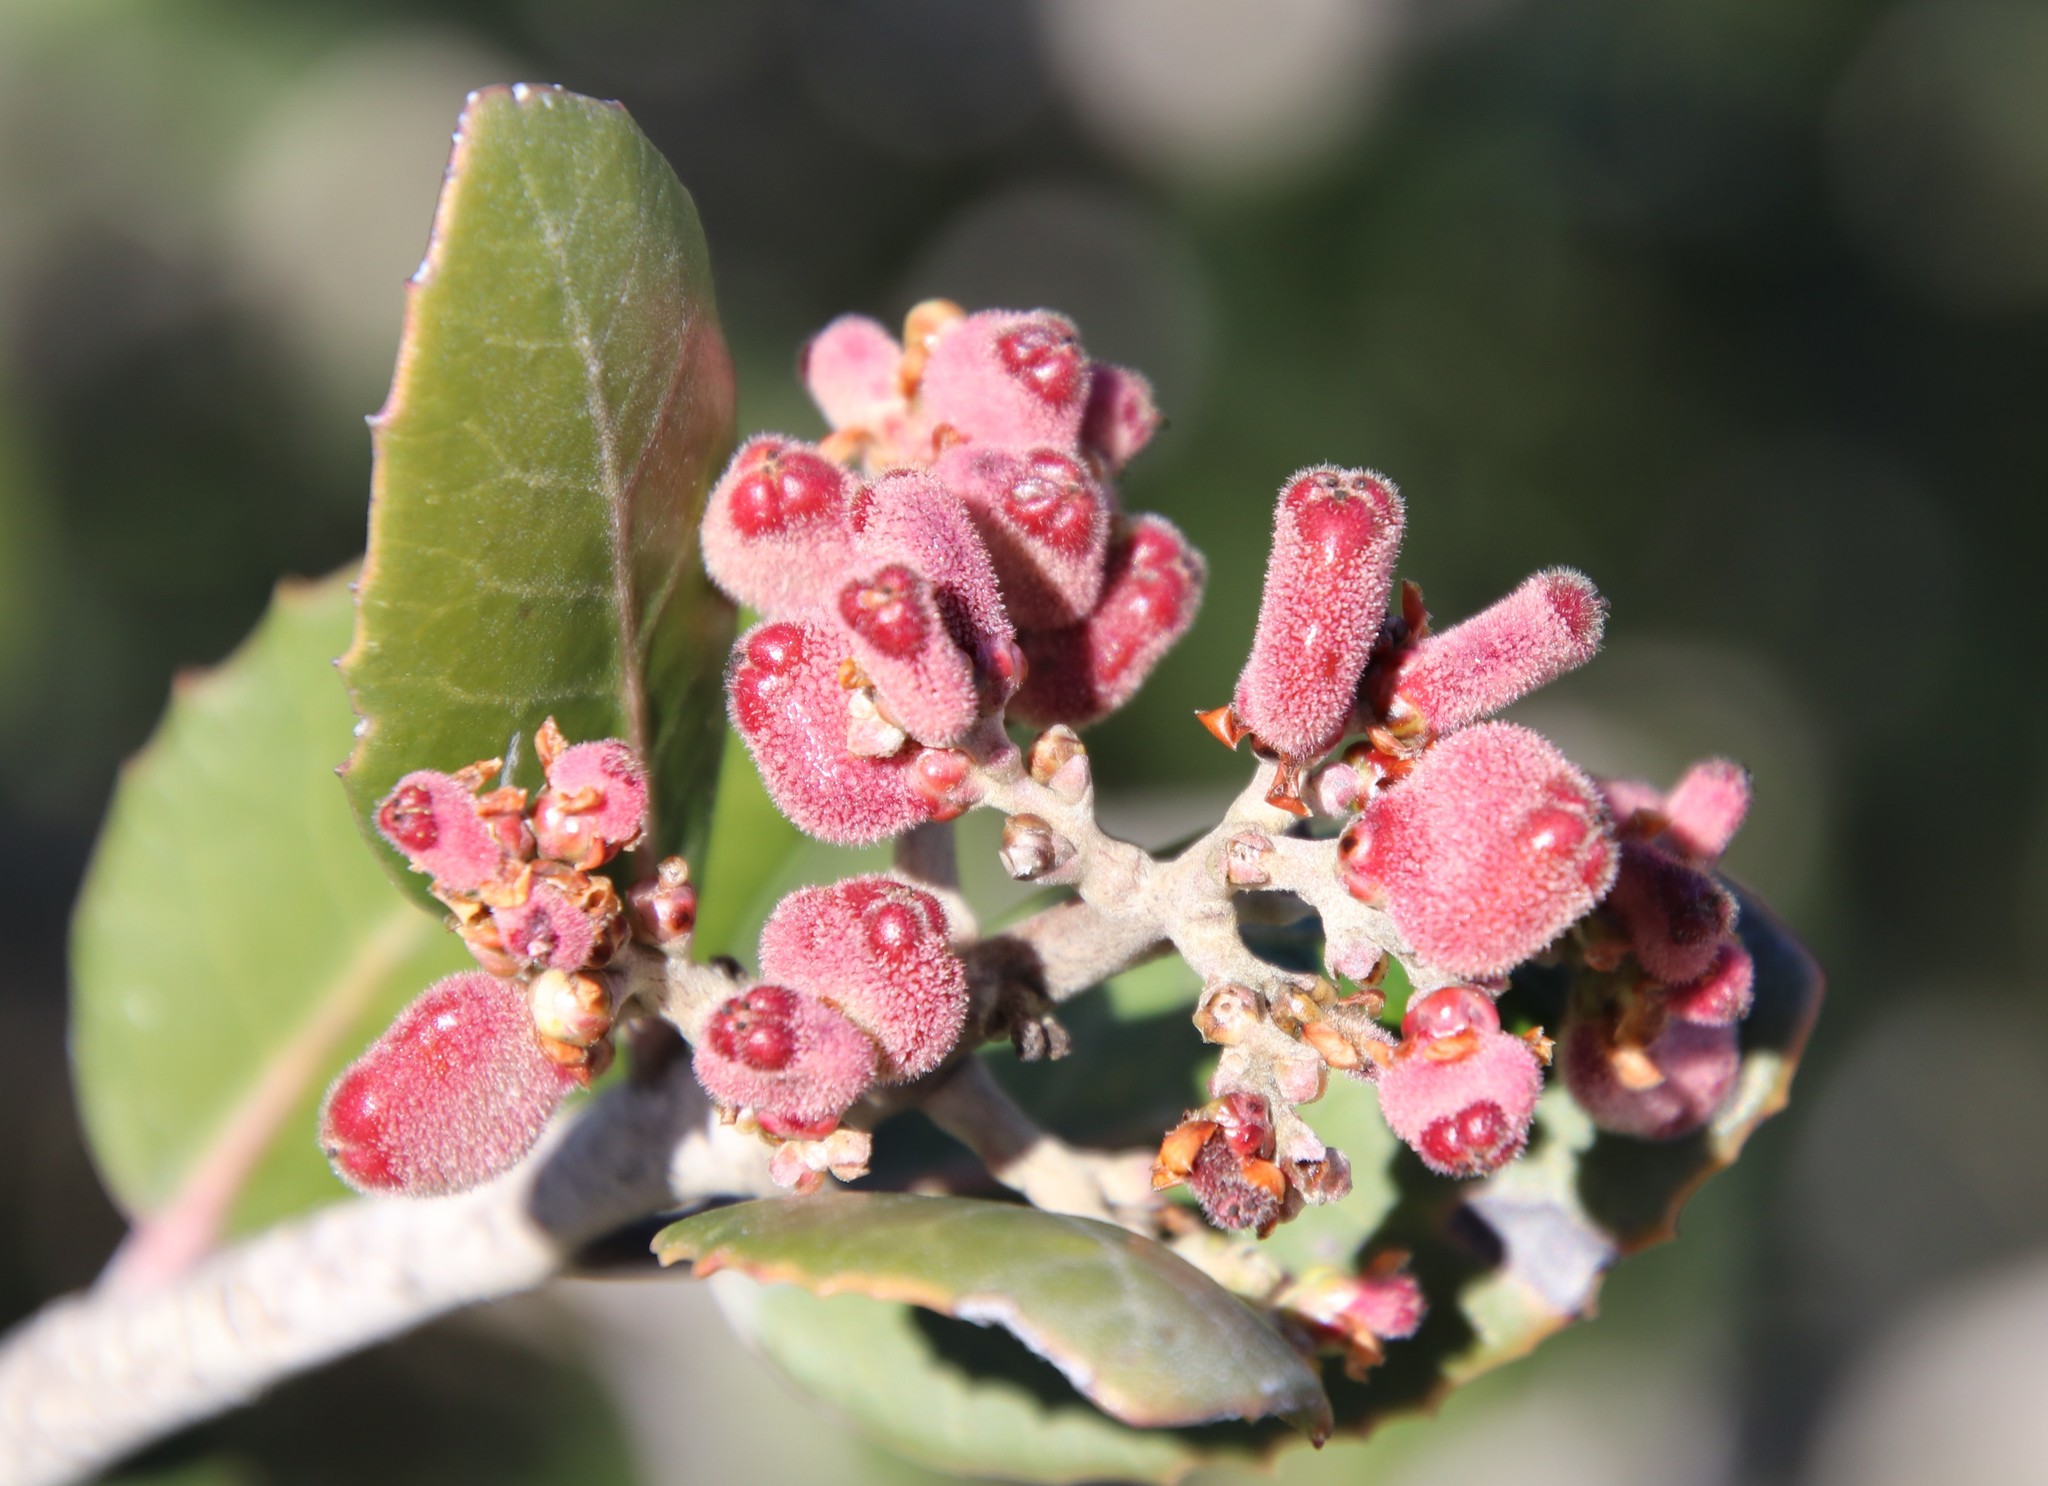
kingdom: Plantae
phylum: Tracheophyta
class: Magnoliopsida
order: Sapindales
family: Anacardiaceae
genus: Rhus
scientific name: Rhus integrifolia
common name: Lemonade sumac
